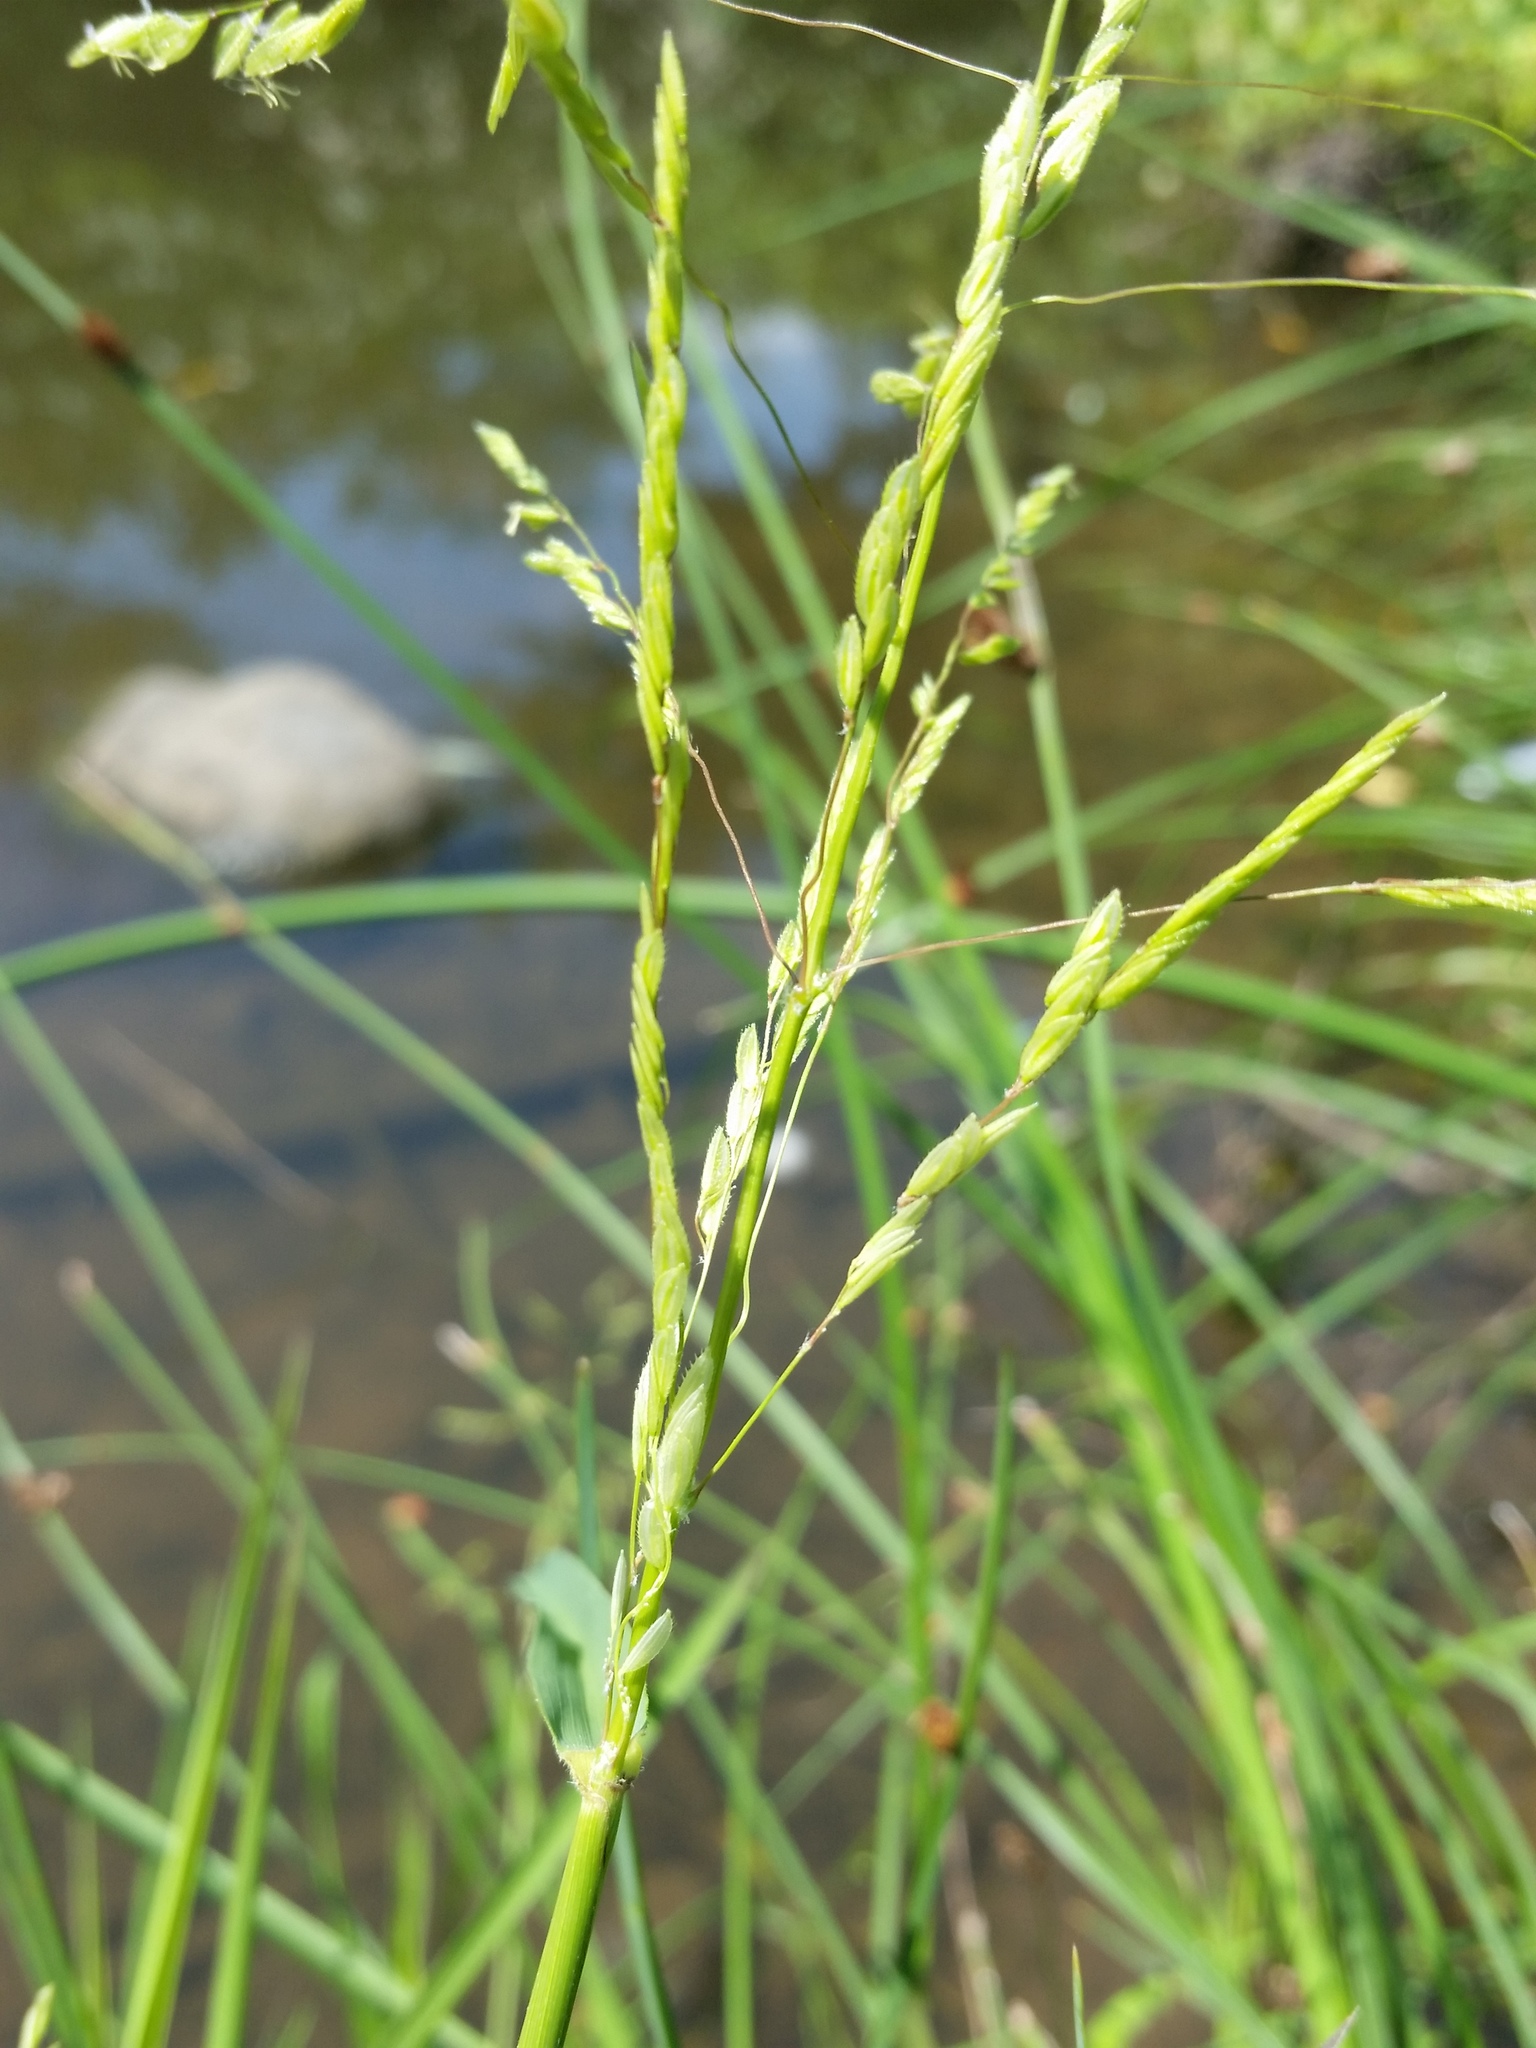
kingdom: Plantae
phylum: Tracheophyta
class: Liliopsida
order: Poales
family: Poaceae
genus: Leersia
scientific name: Leersia oryzoides
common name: Cut-grass
